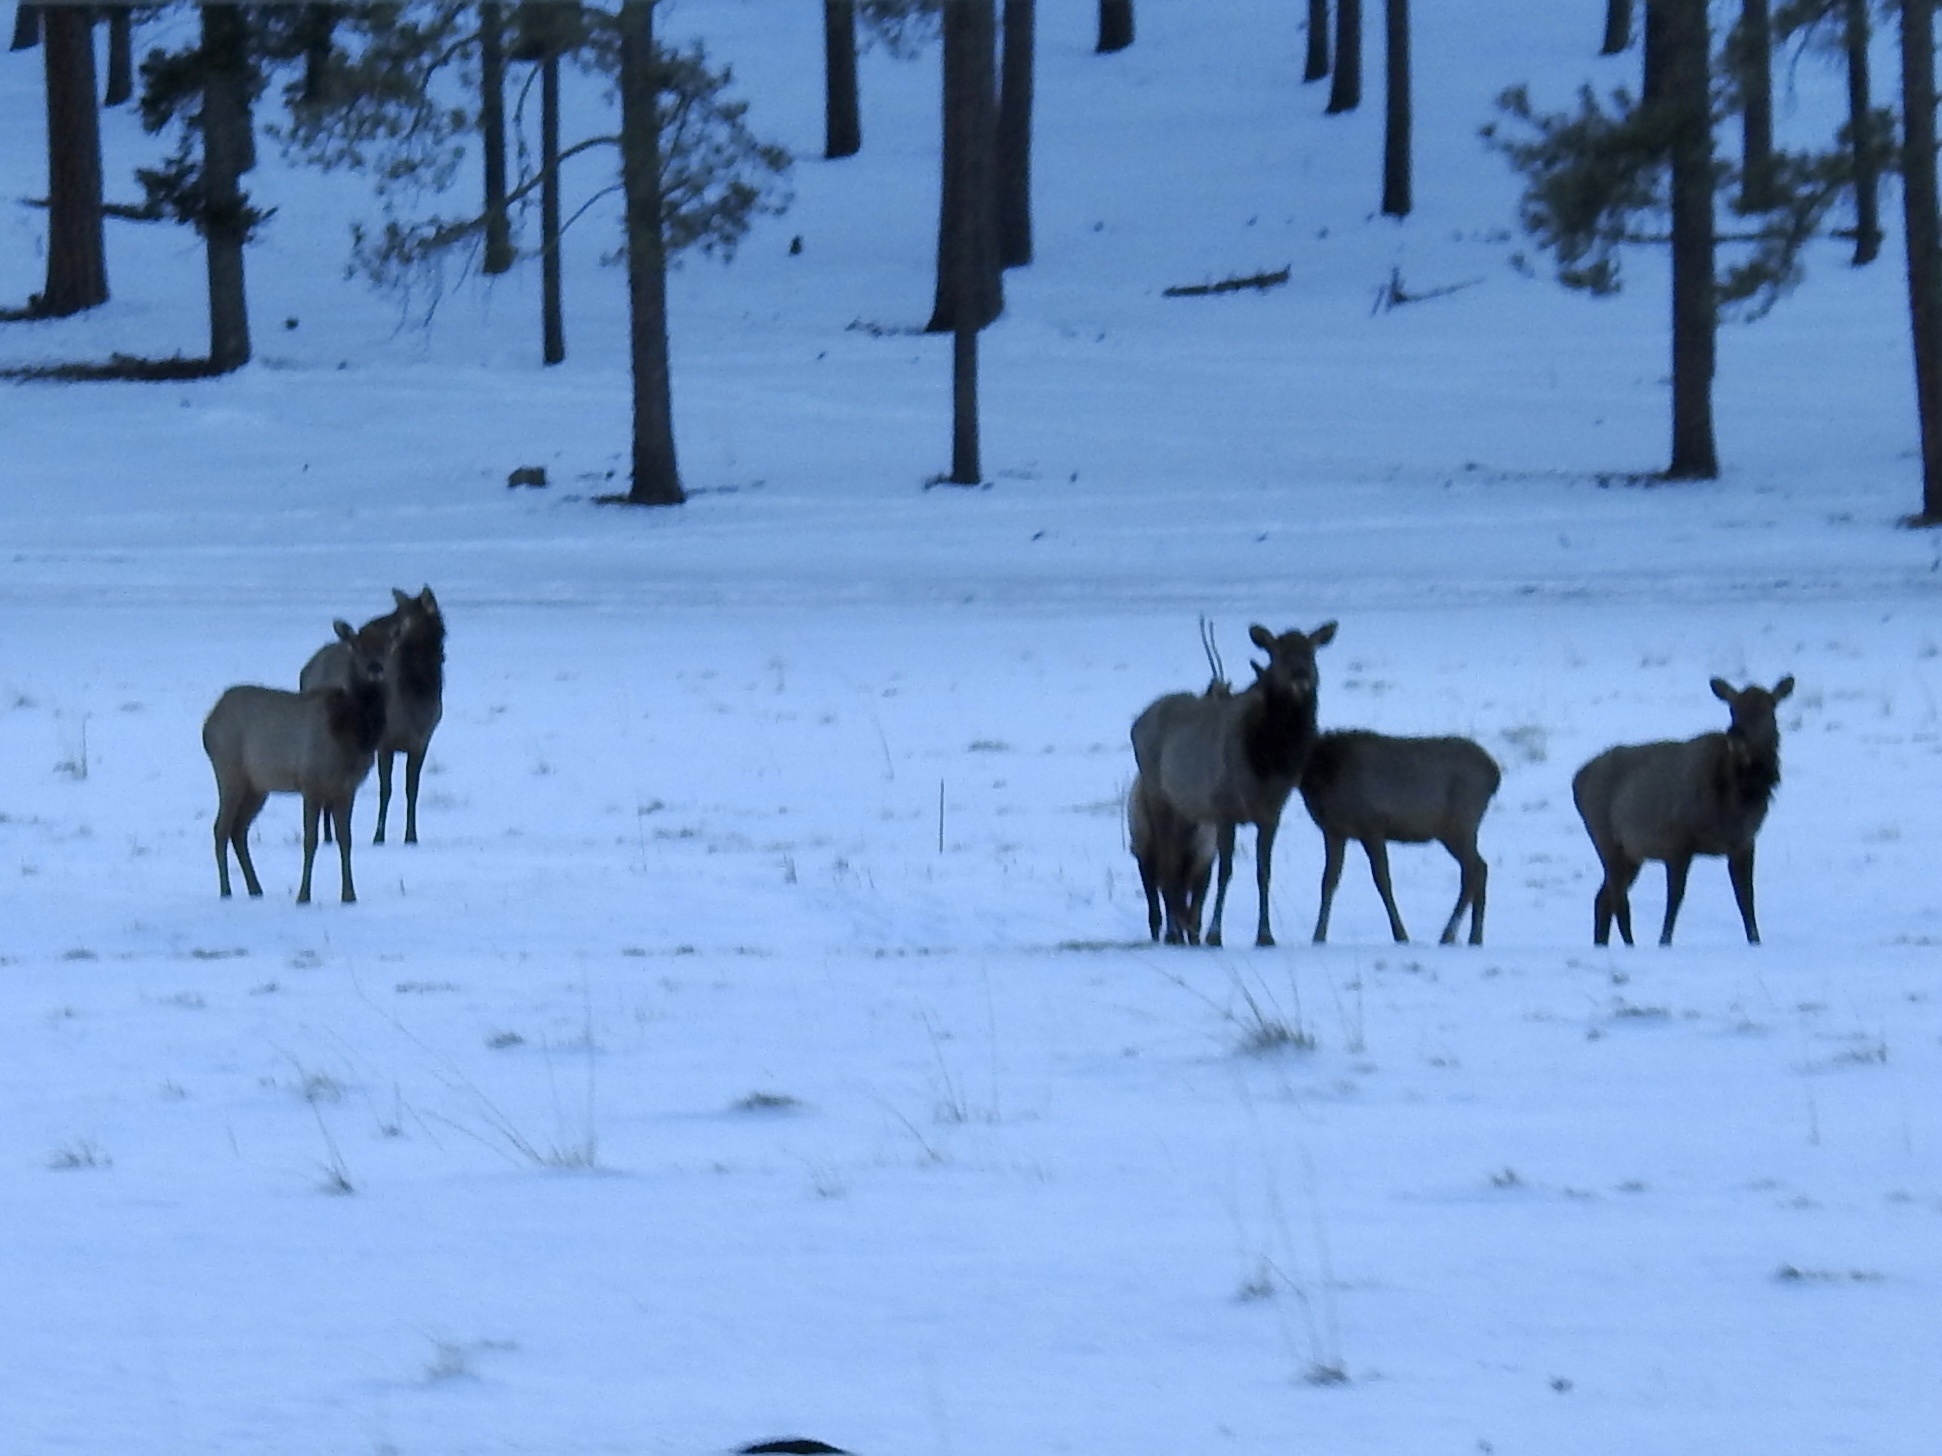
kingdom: Animalia
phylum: Chordata
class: Mammalia
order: Artiodactyla
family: Cervidae
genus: Cervus
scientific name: Cervus elaphus
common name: Red deer
